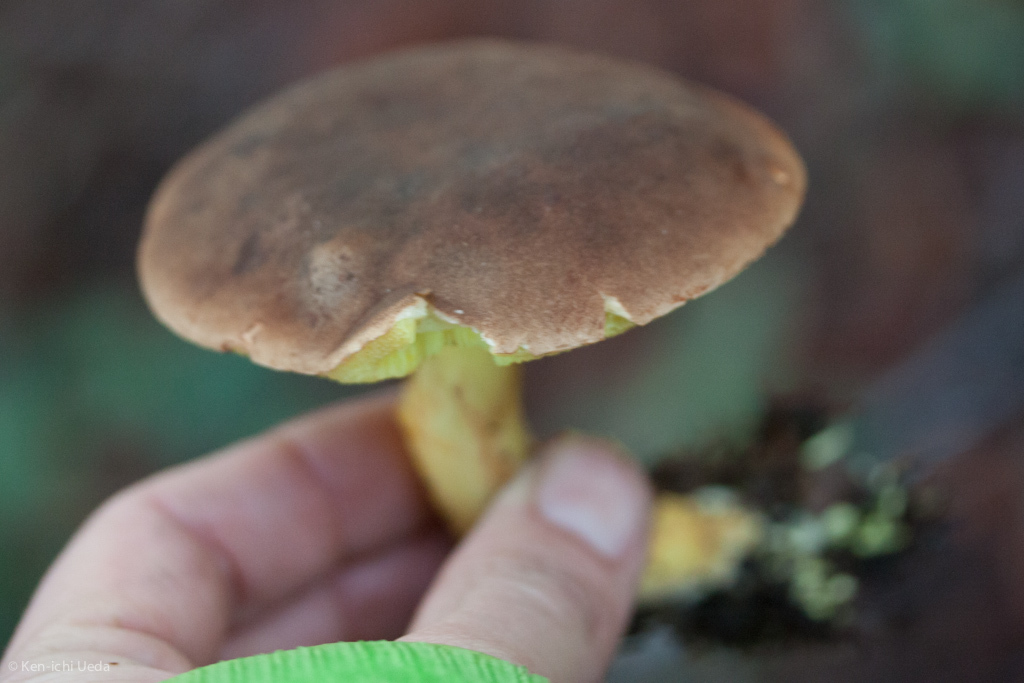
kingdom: Fungi
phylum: Basidiomycota
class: Agaricomycetes
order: Boletales
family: Boletaceae
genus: Xerocomus
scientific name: Xerocomus subtomentosus
